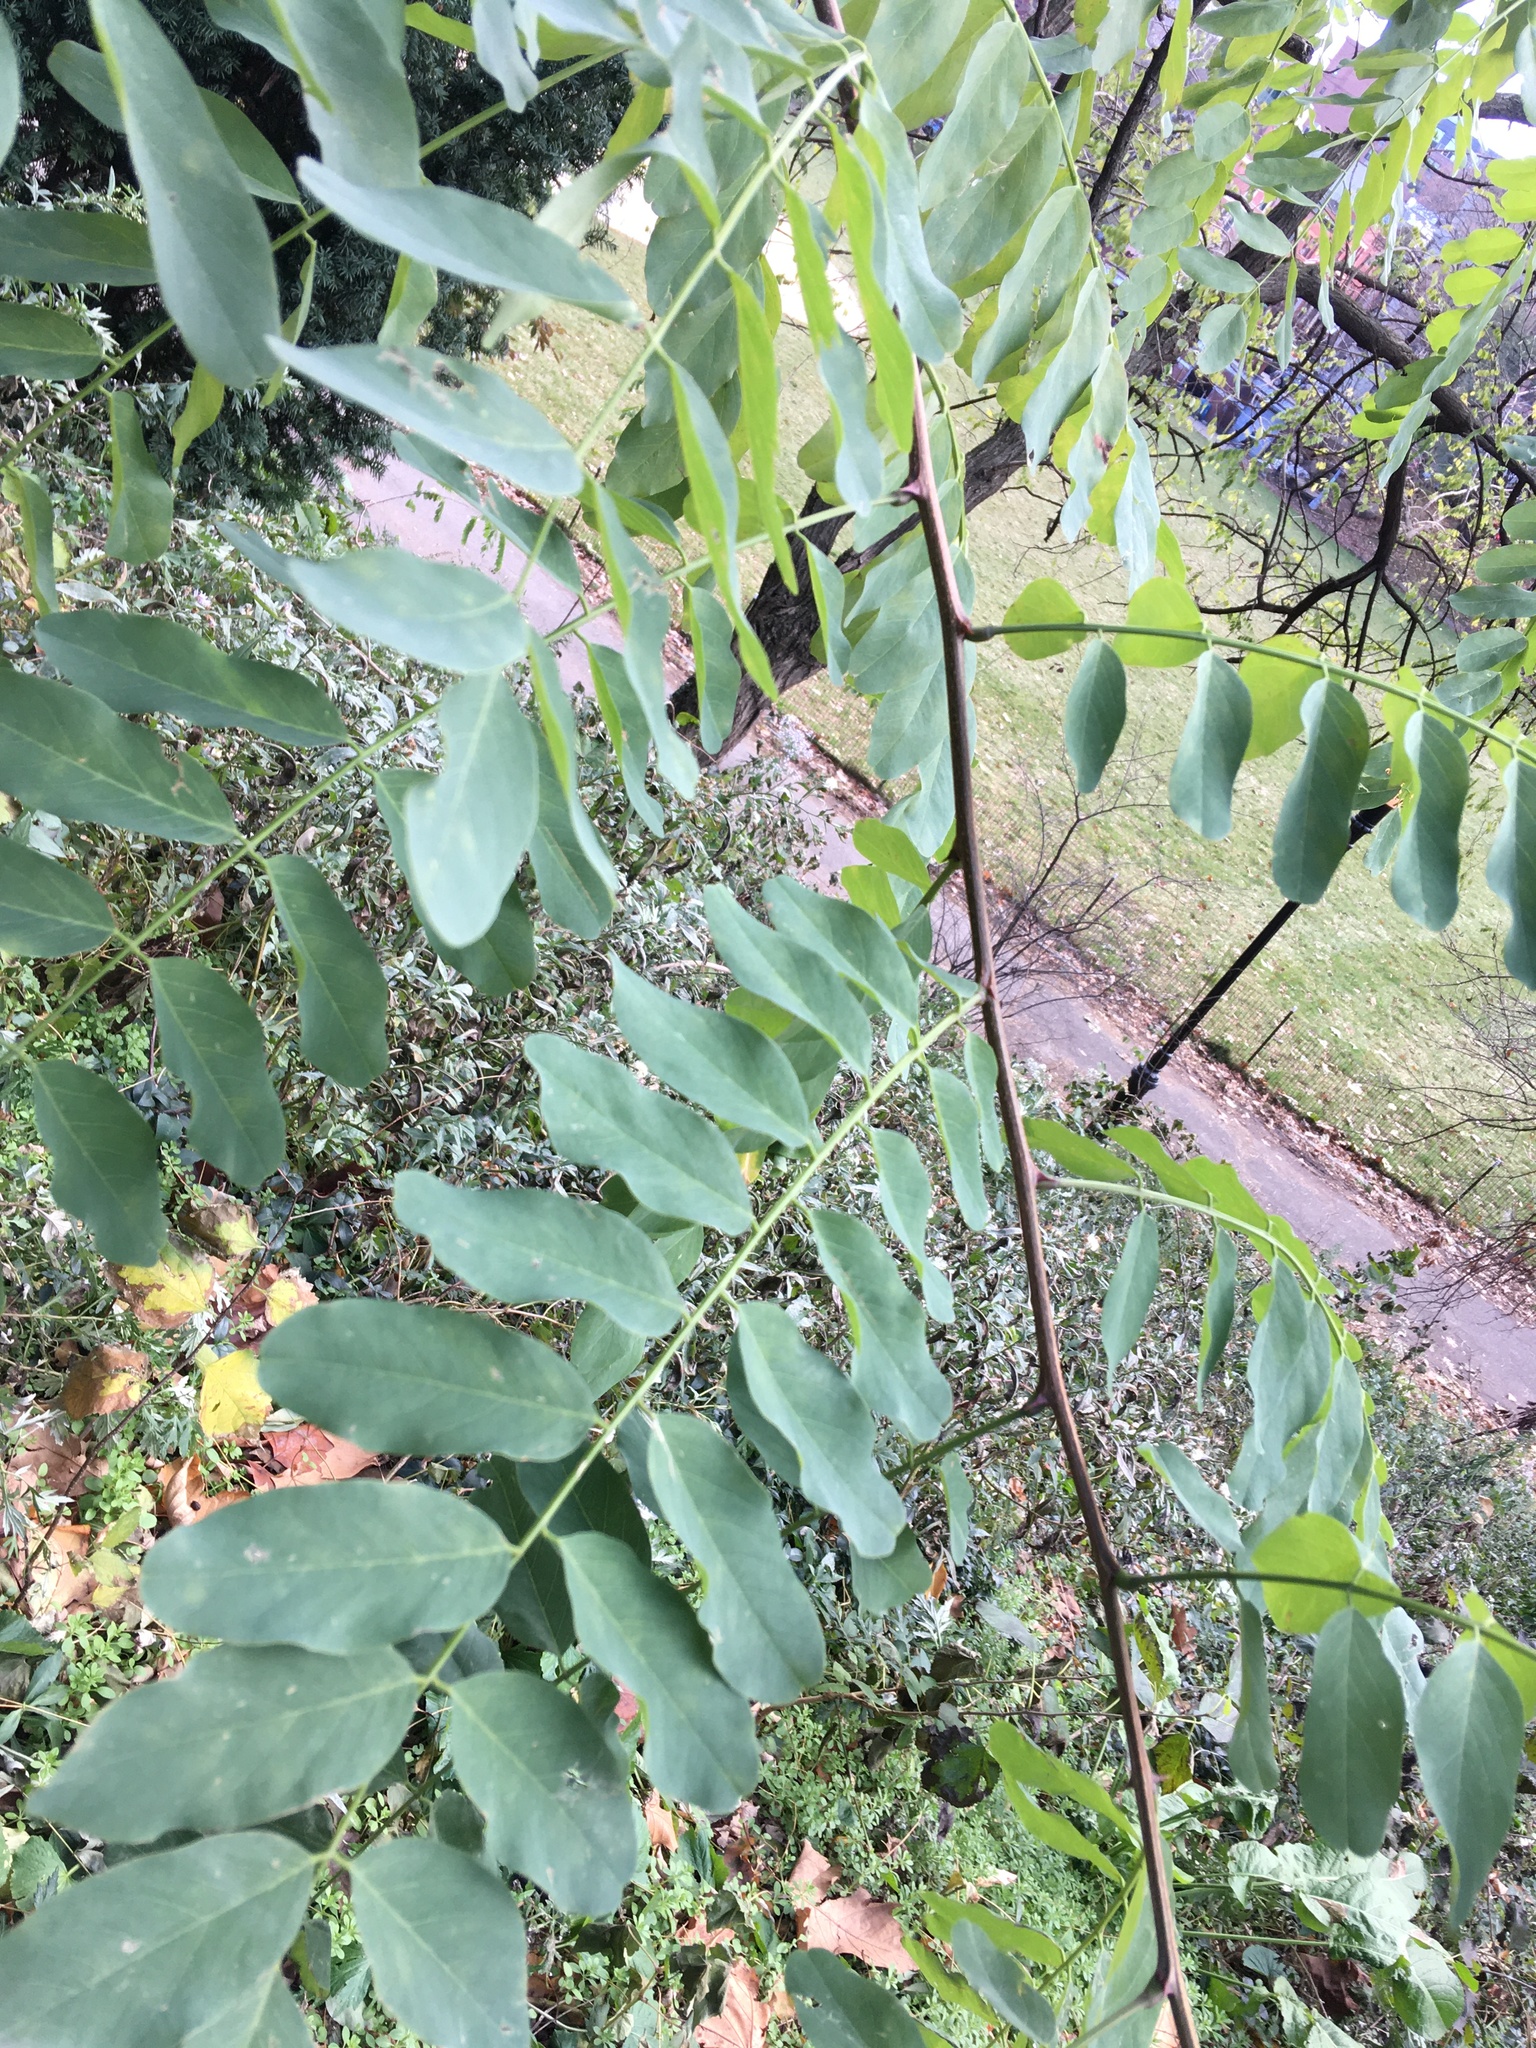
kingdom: Plantae
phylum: Tracheophyta
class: Magnoliopsida
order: Fabales
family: Fabaceae
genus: Robinia
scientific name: Robinia pseudoacacia
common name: Black locust
